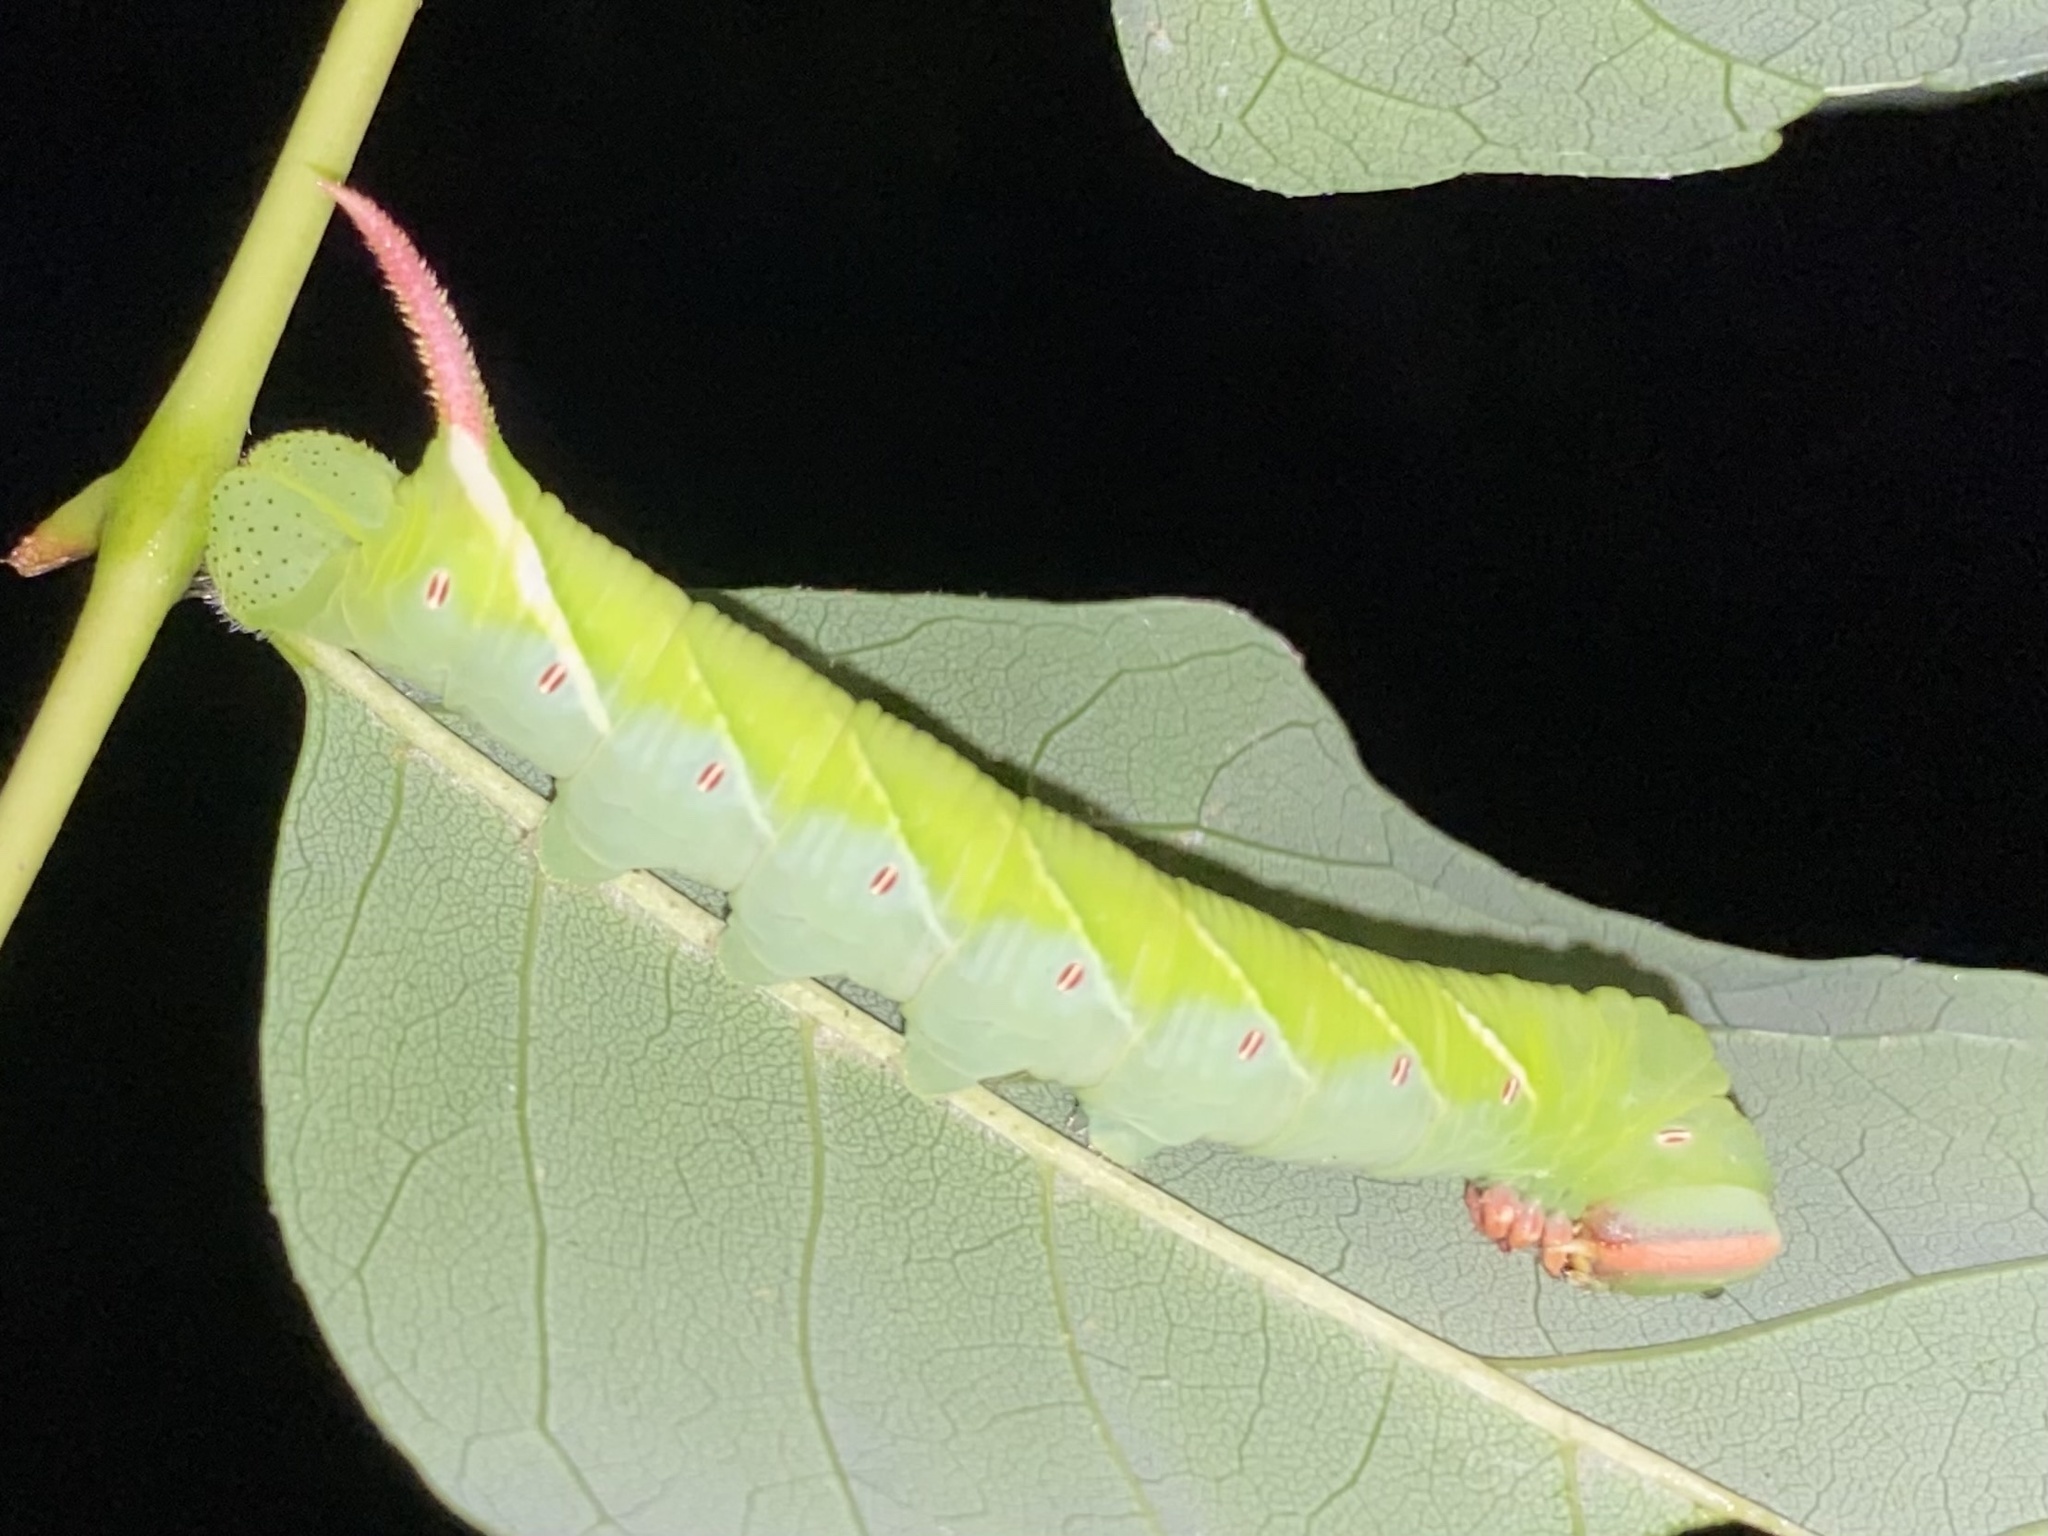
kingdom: Animalia
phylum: Arthropoda
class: Insecta
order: Lepidoptera
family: Sphingidae
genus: Ceratomia
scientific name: Ceratomia undulosa
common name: Waved sphinx
